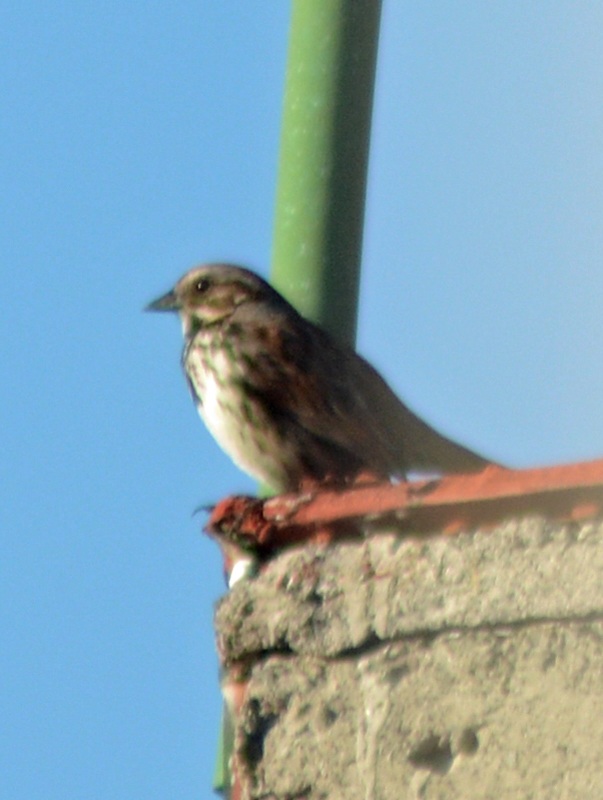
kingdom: Animalia
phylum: Chordata
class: Aves
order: Passeriformes
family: Passerellidae
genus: Melospiza
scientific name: Melospiza melodia
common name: Song sparrow
